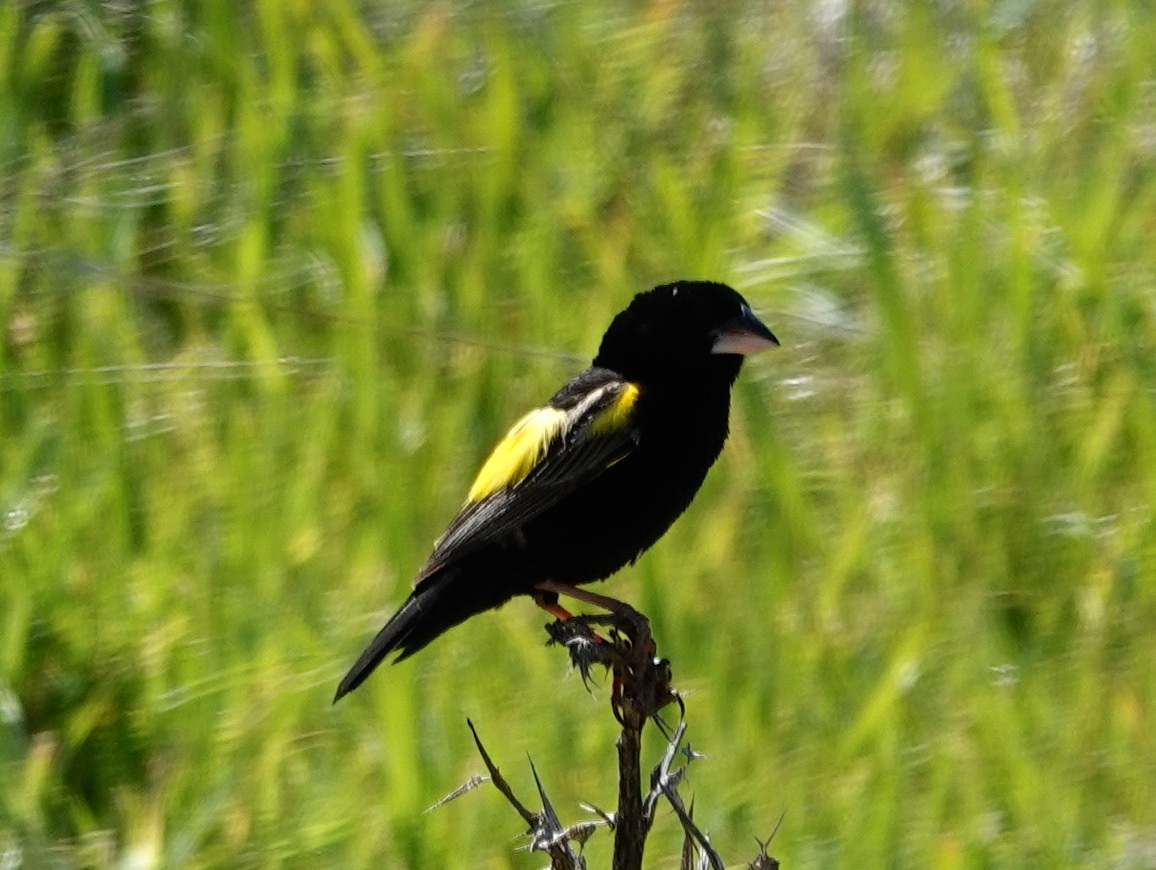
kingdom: Animalia
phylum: Chordata
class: Aves
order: Passeriformes
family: Ploceidae
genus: Euplectes
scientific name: Euplectes capensis
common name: Yellow bishop
